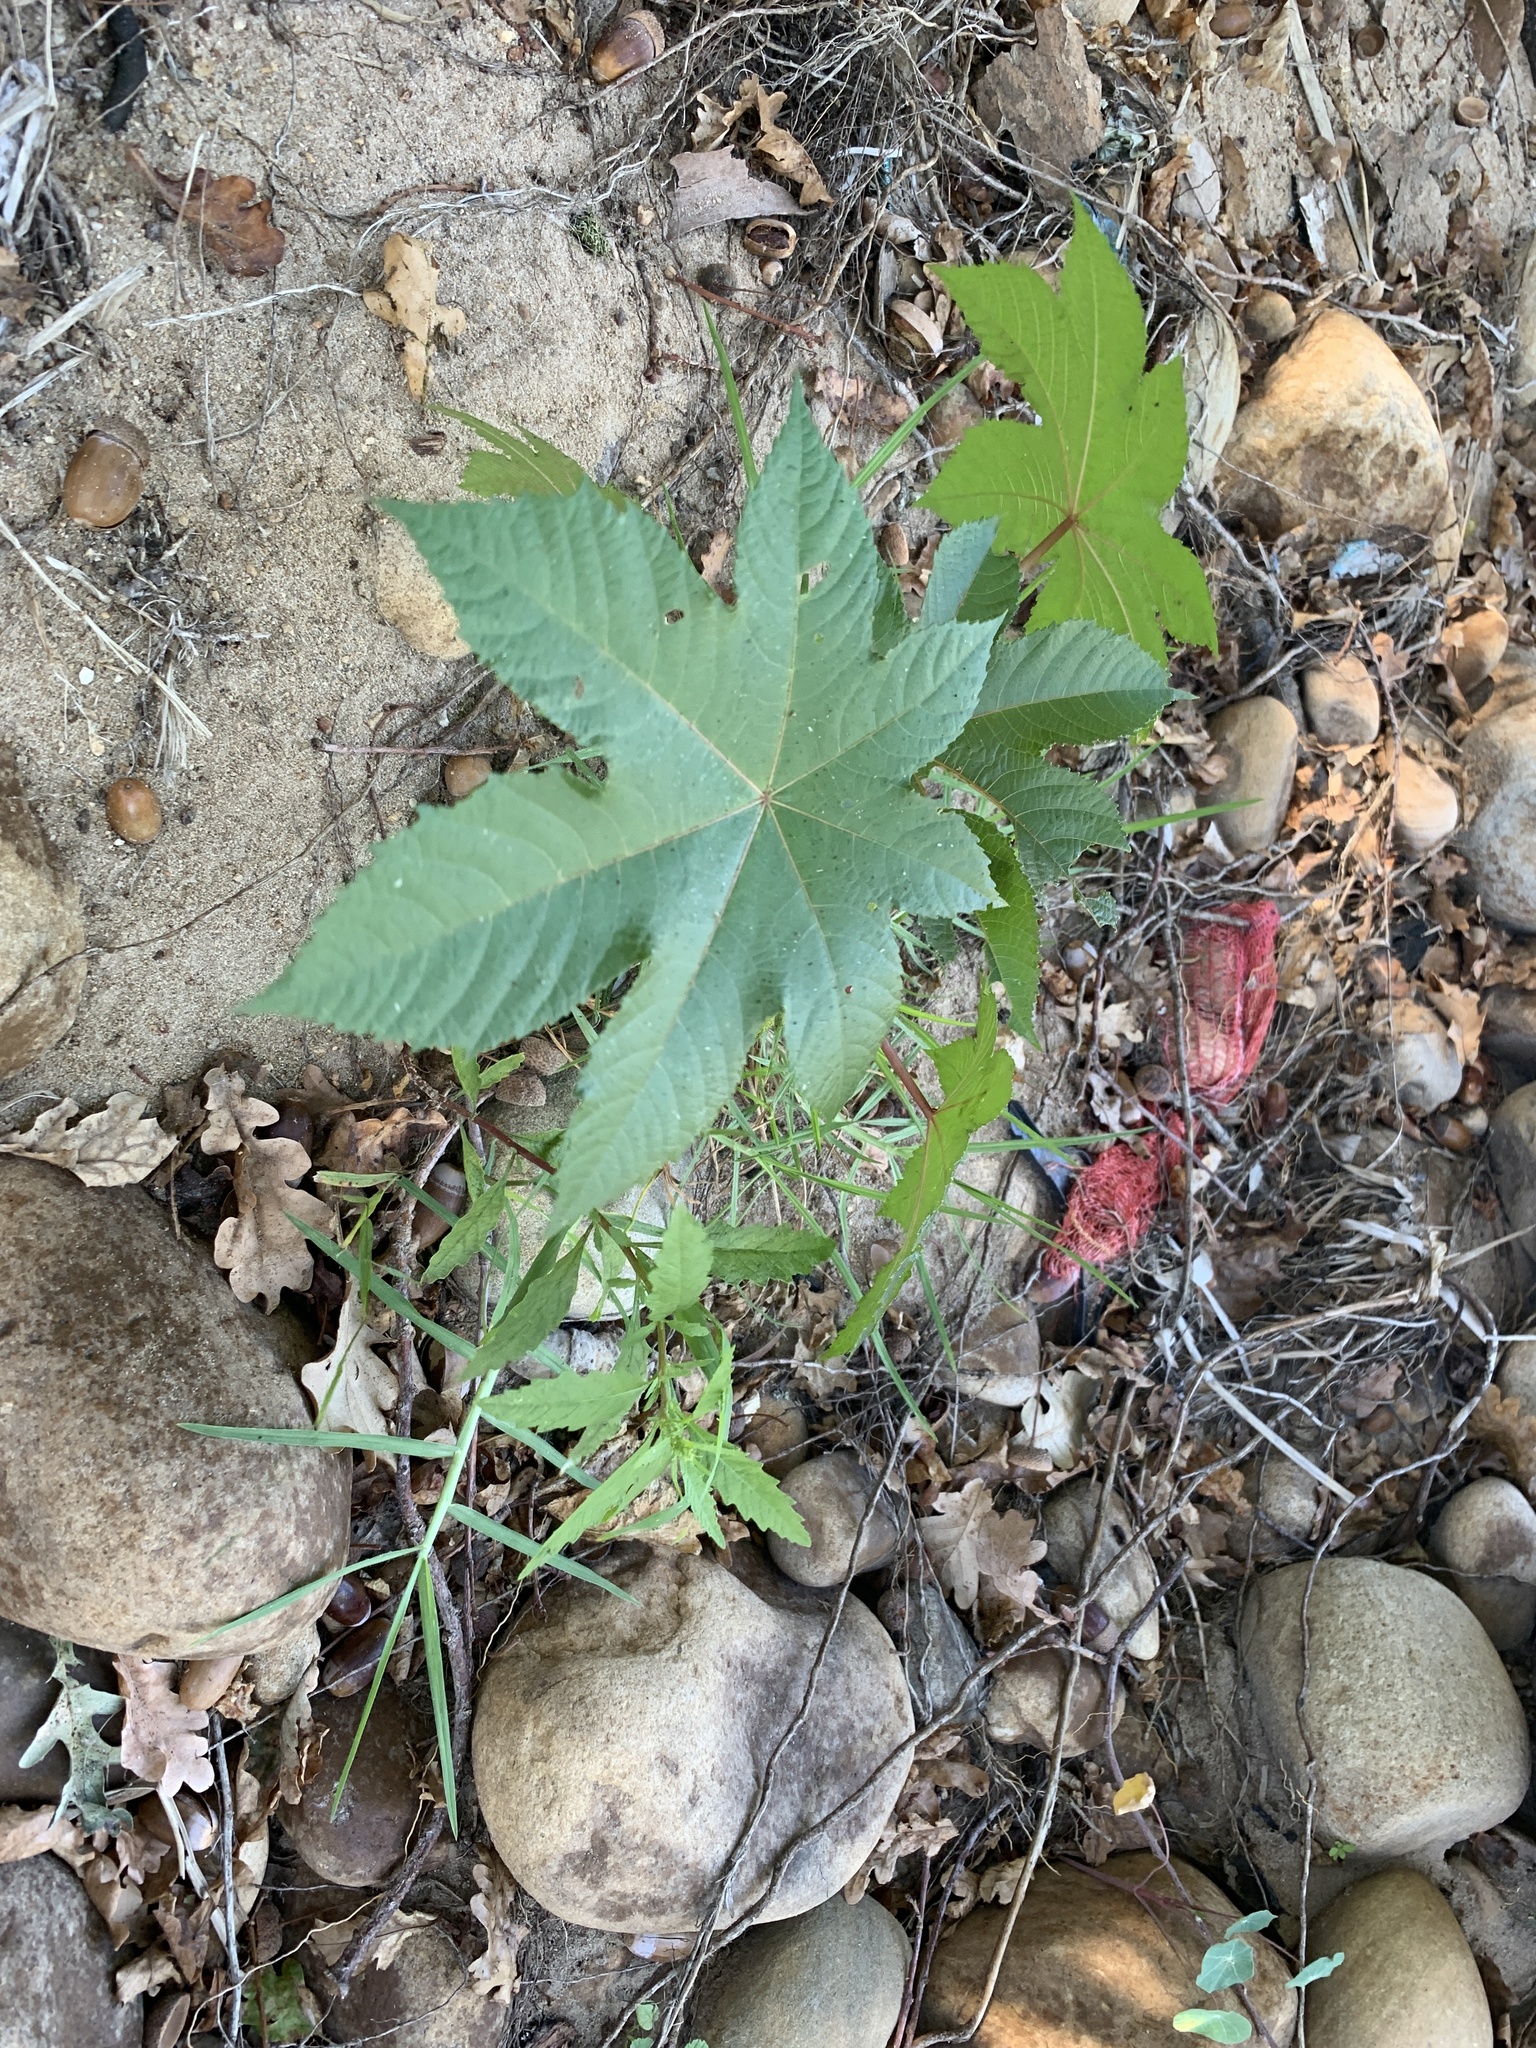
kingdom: Plantae
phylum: Tracheophyta
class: Magnoliopsida
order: Malpighiales
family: Euphorbiaceae
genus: Ricinus
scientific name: Ricinus communis
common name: Castor-oil-plant
